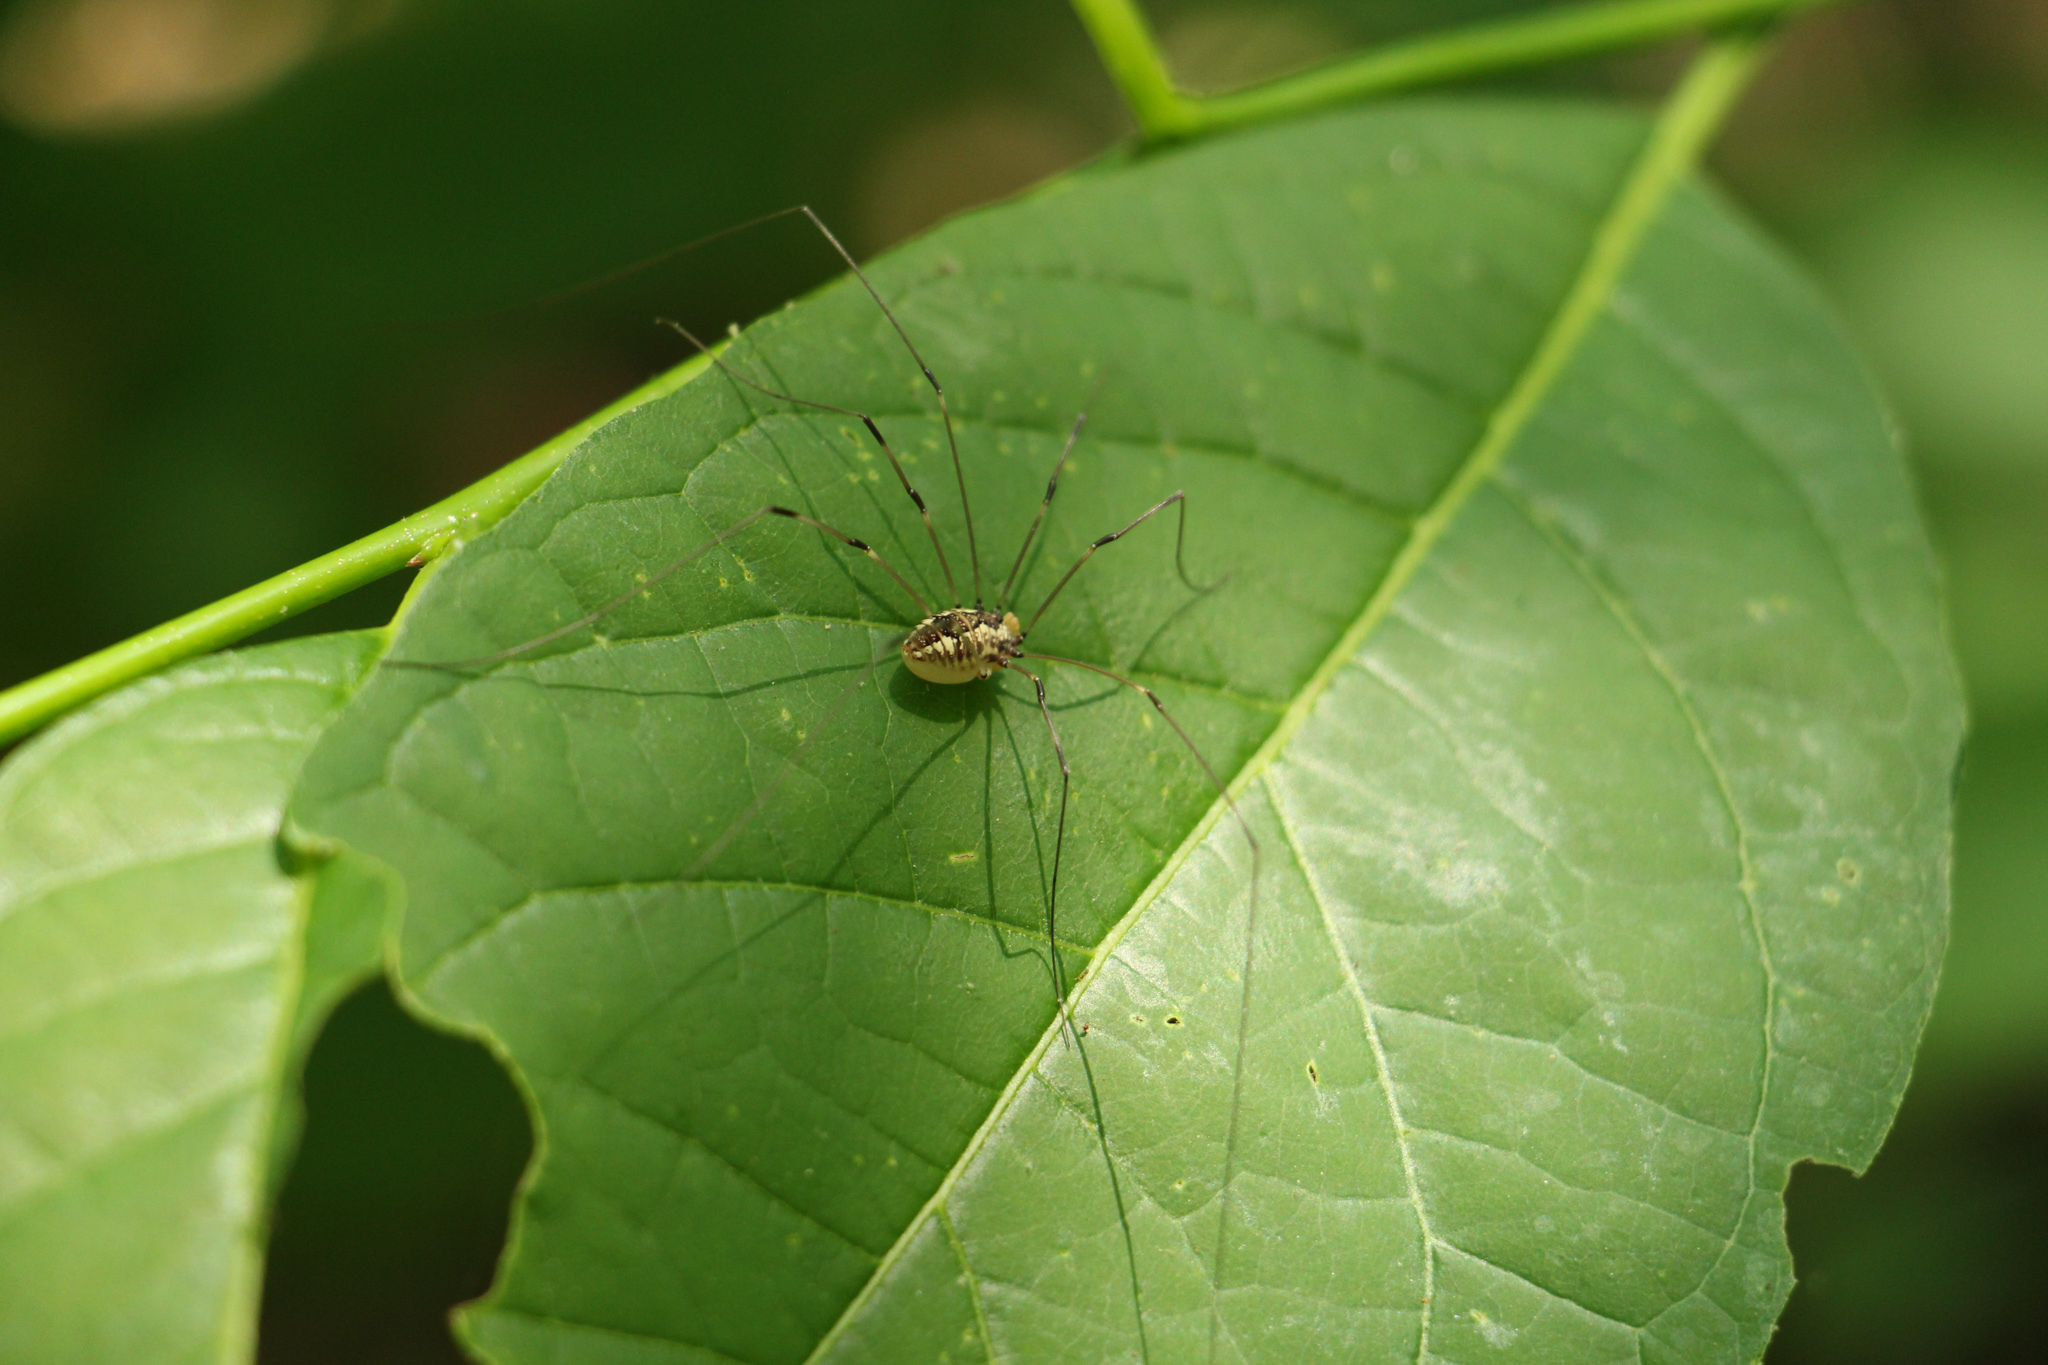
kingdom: Animalia
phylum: Arthropoda
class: Arachnida
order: Opiliones
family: Sclerosomatidae
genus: Leiobunum
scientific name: Leiobunum vittatum
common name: Eastern harvestman
